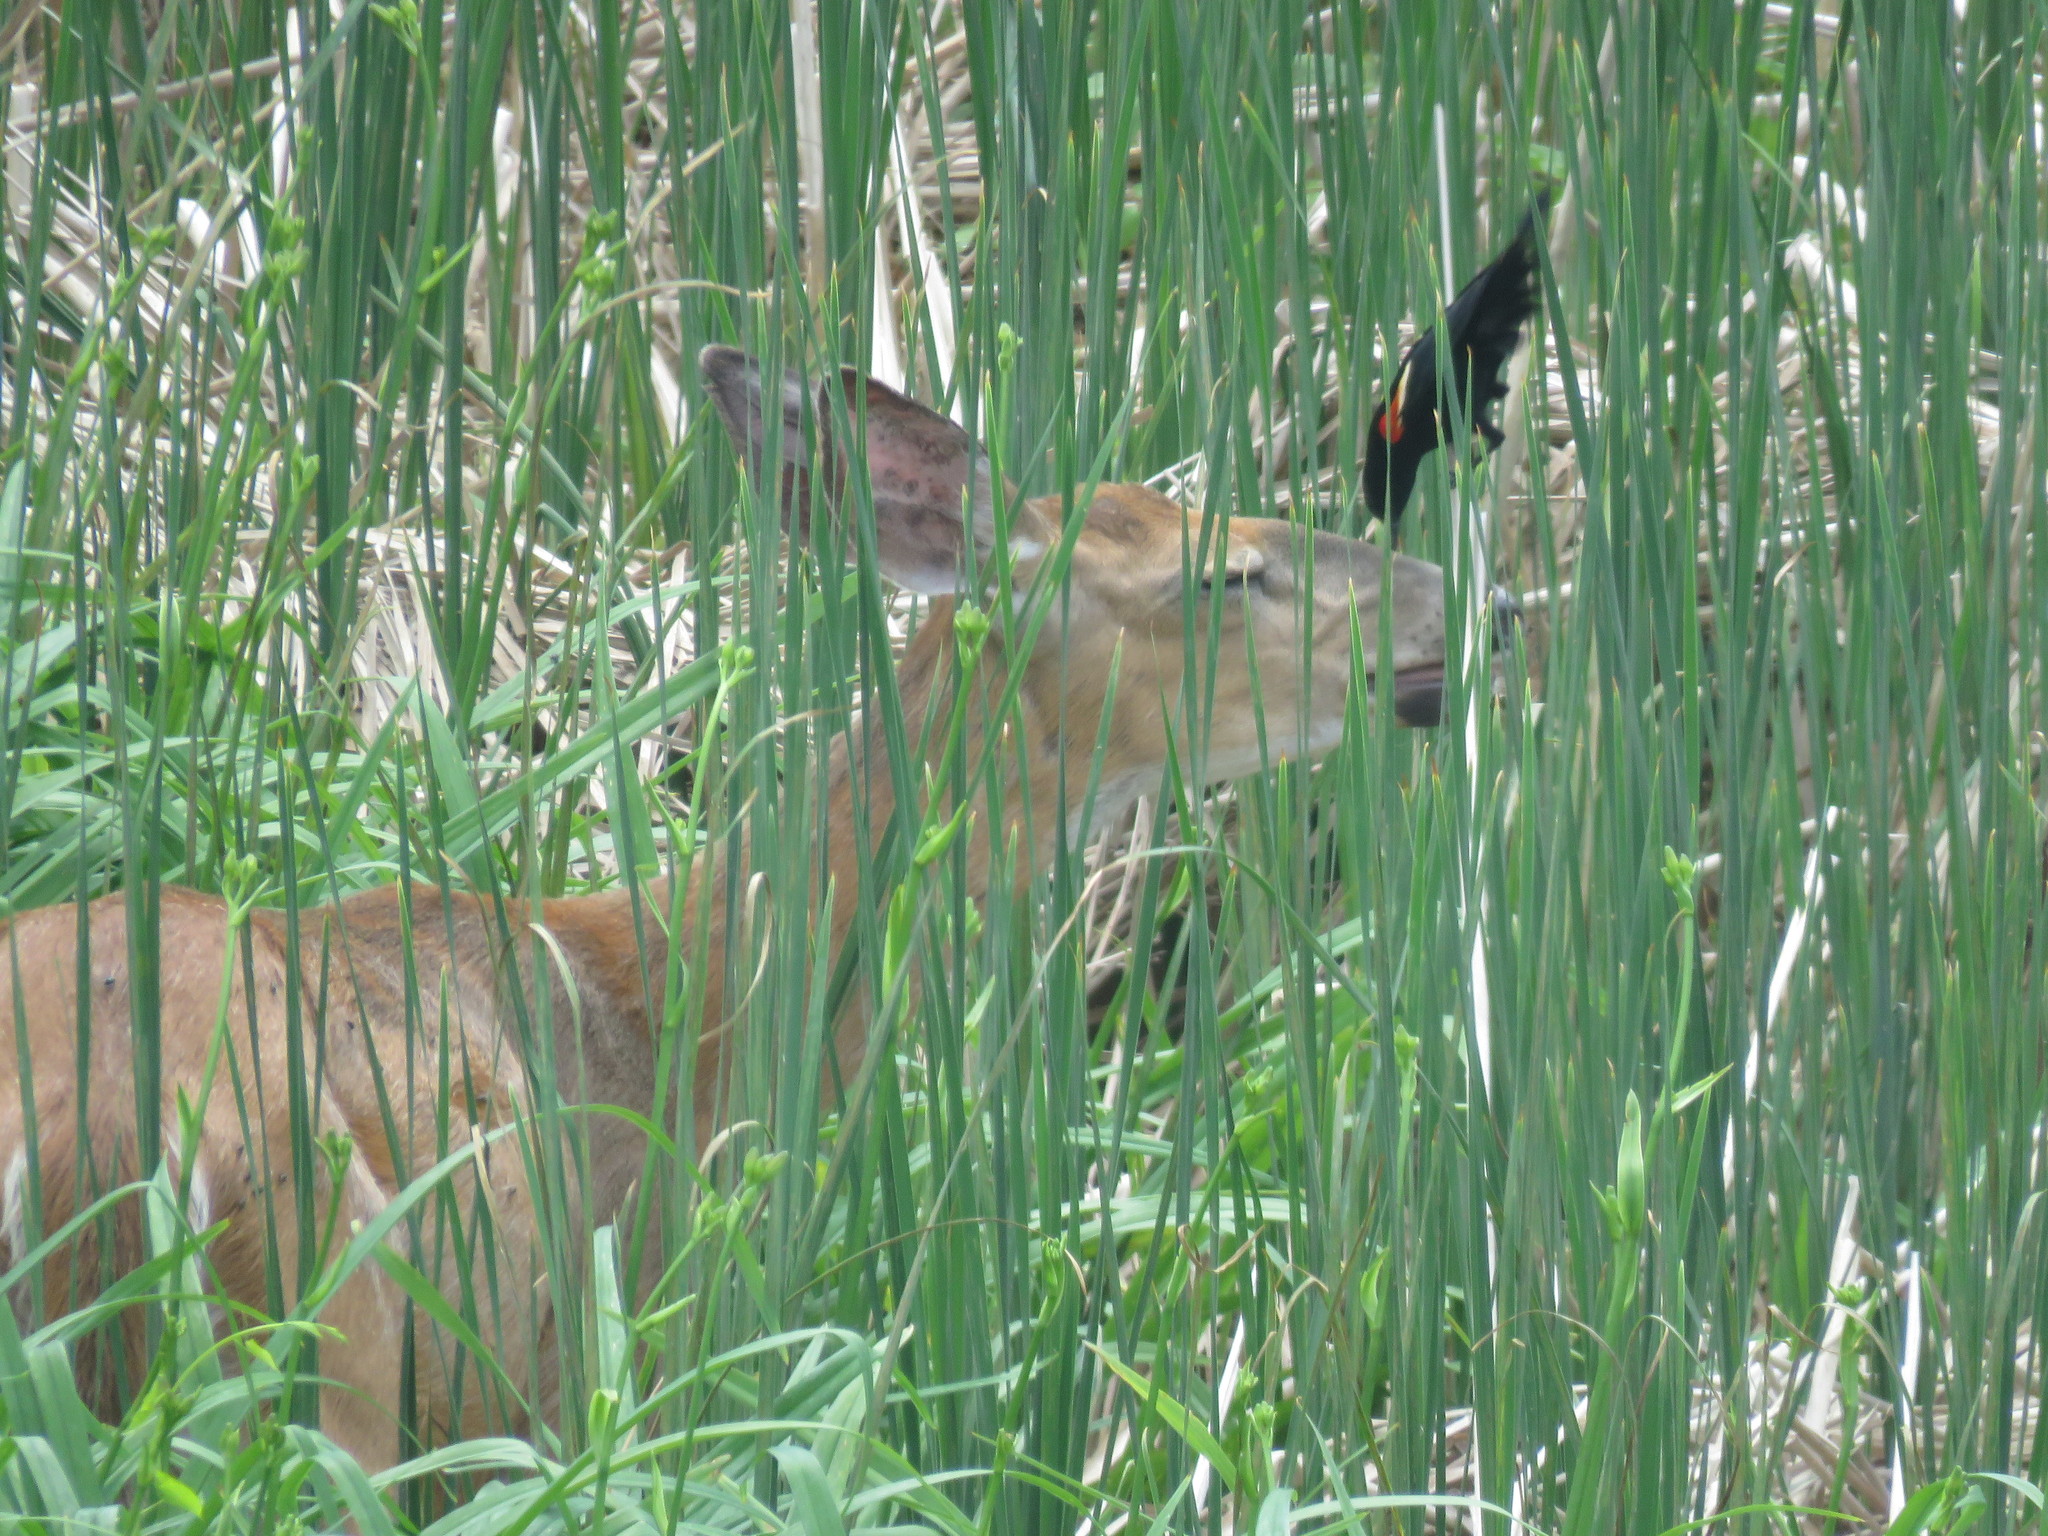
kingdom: Animalia
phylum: Chordata
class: Mammalia
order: Artiodactyla
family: Cervidae
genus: Odocoileus
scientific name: Odocoileus virginianus
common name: White-tailed deer
